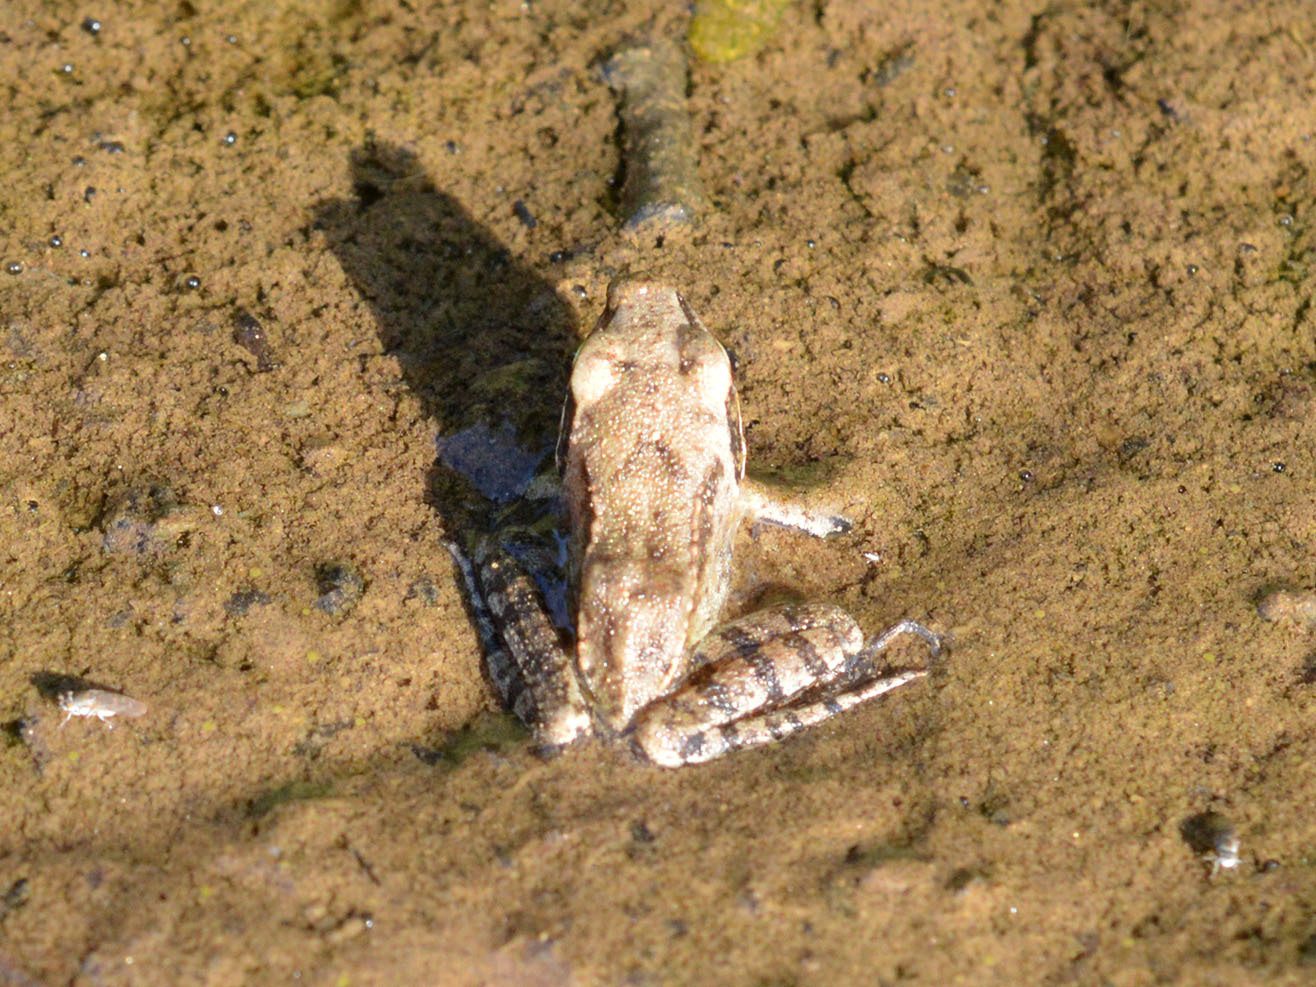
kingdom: Animalia
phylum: Chordata
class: Amphibia
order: Anura
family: Ranidae
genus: Rana
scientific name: Rana dalmatina
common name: Agile frog
